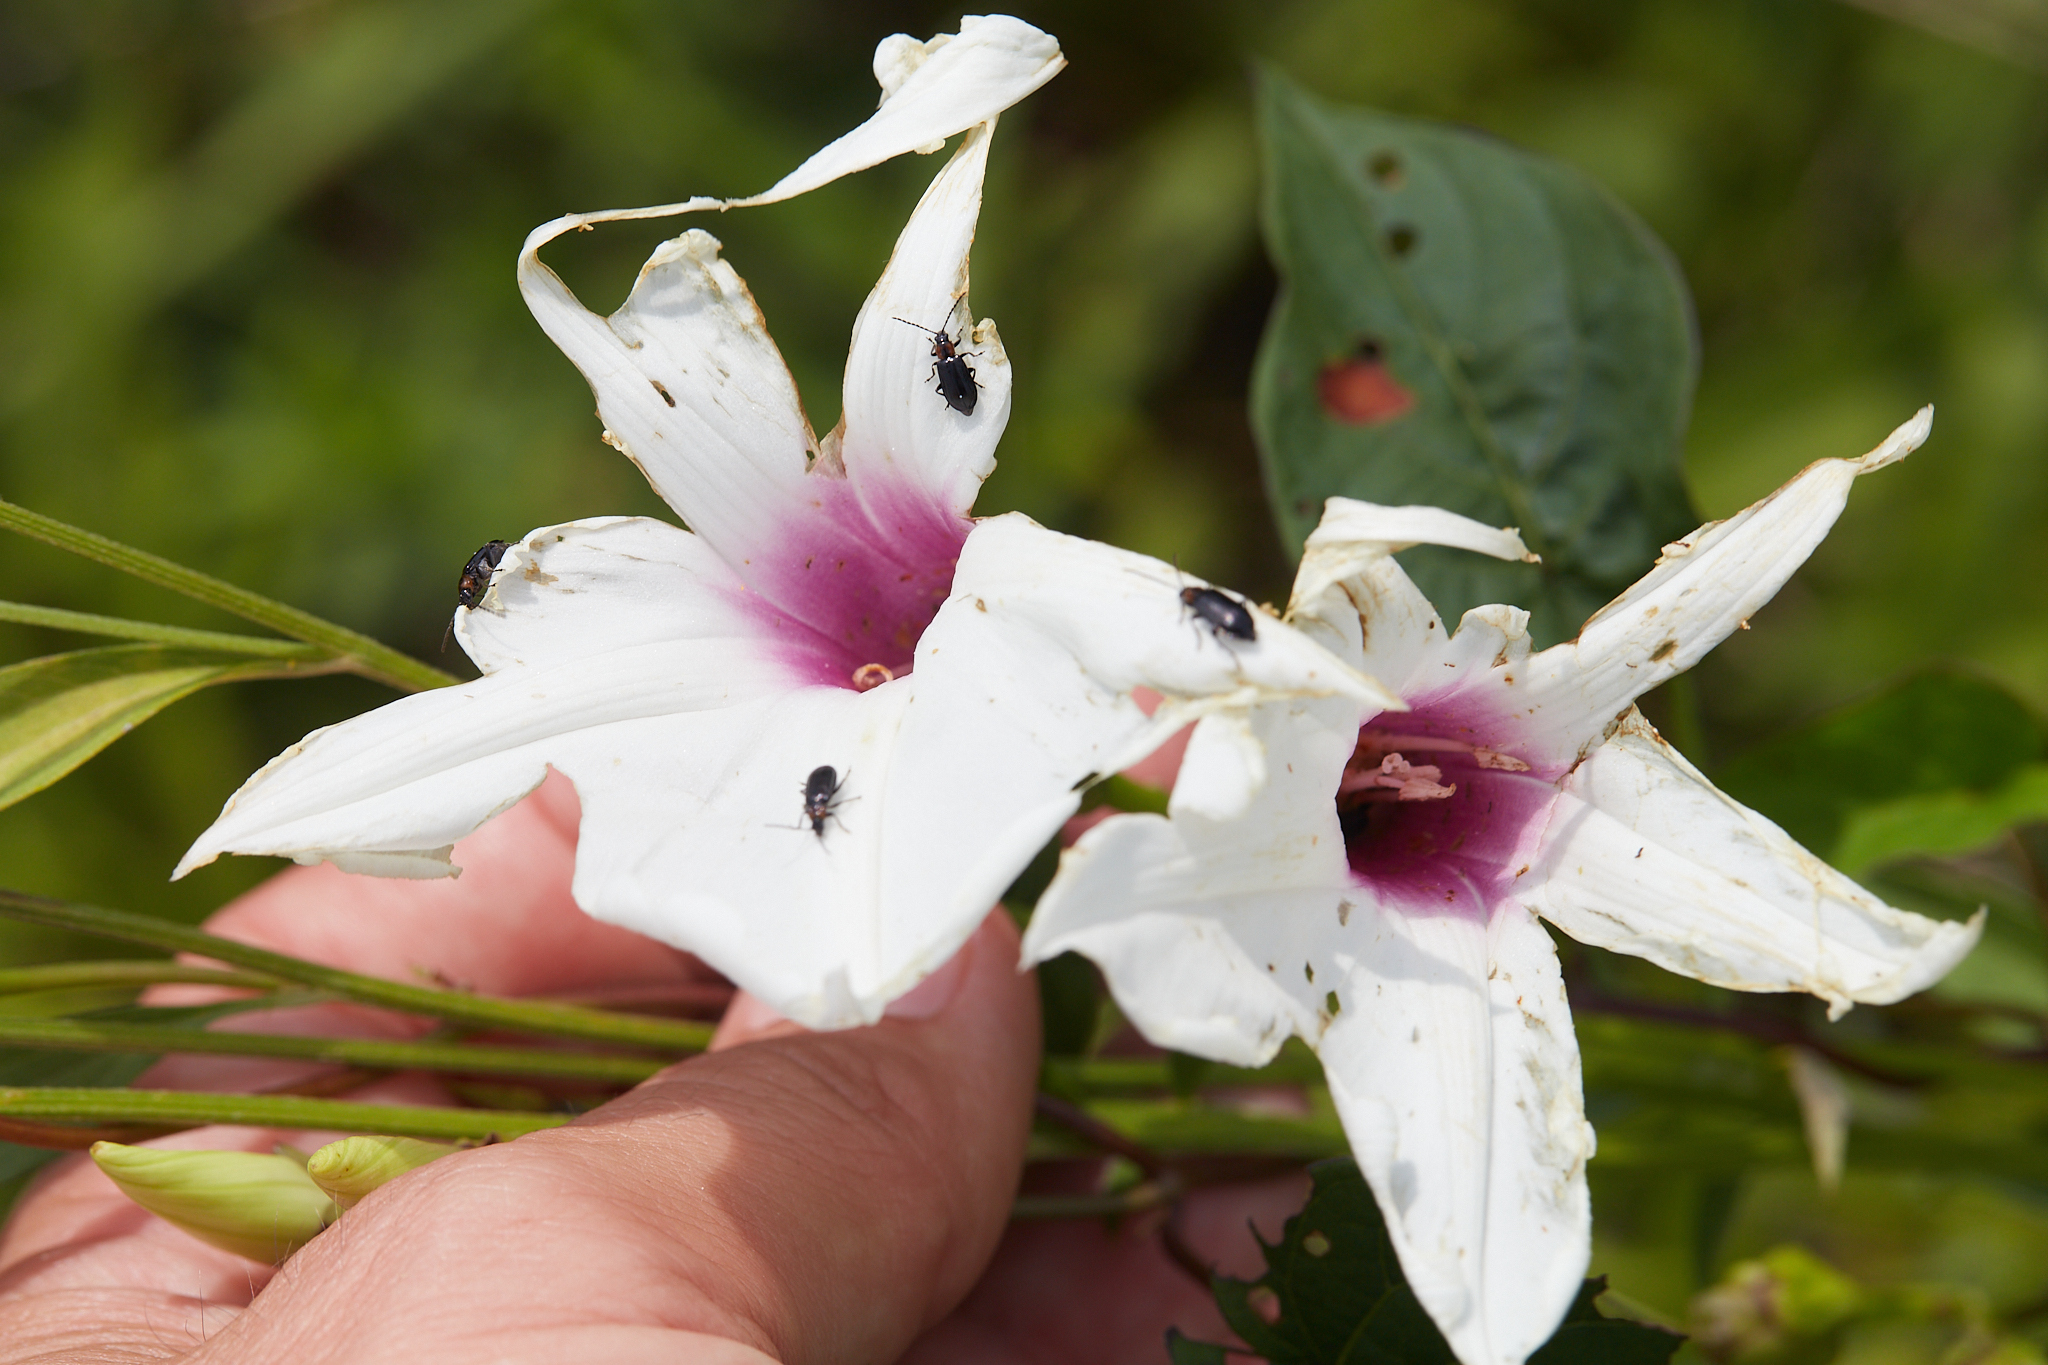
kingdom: Plantae
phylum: Tracheophyta
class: Magnoliopsida
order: Solanales
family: Convolvulaceae
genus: Ipomoea
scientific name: Ipomoea pandurata
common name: Man-of-the-earth
